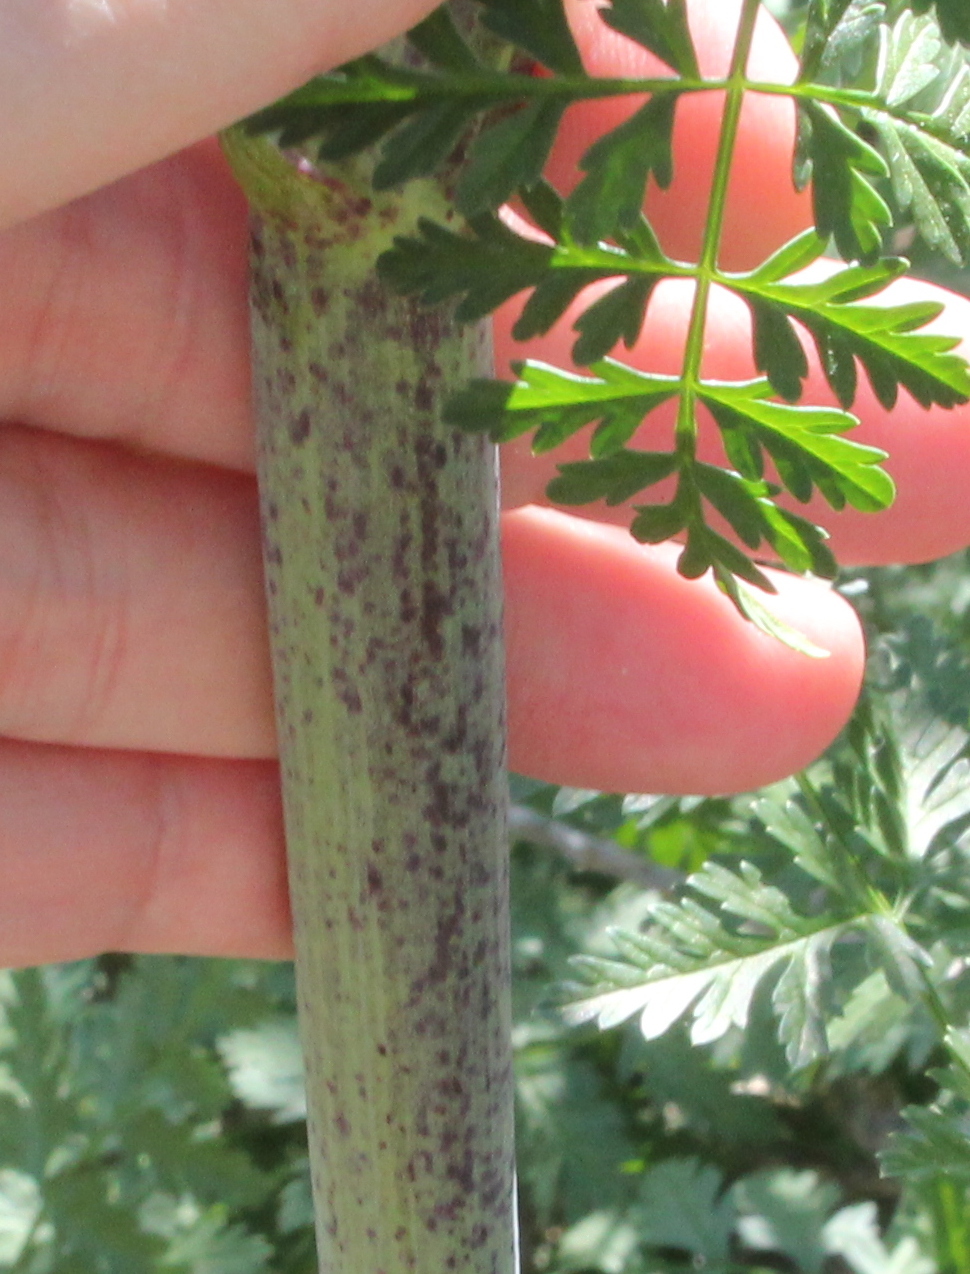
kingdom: Plantae
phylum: Tracheophyta
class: Magnoliopsida
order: Apiales
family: Apiaceae
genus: Conium
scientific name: Conium maculatum
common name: Hemlock
